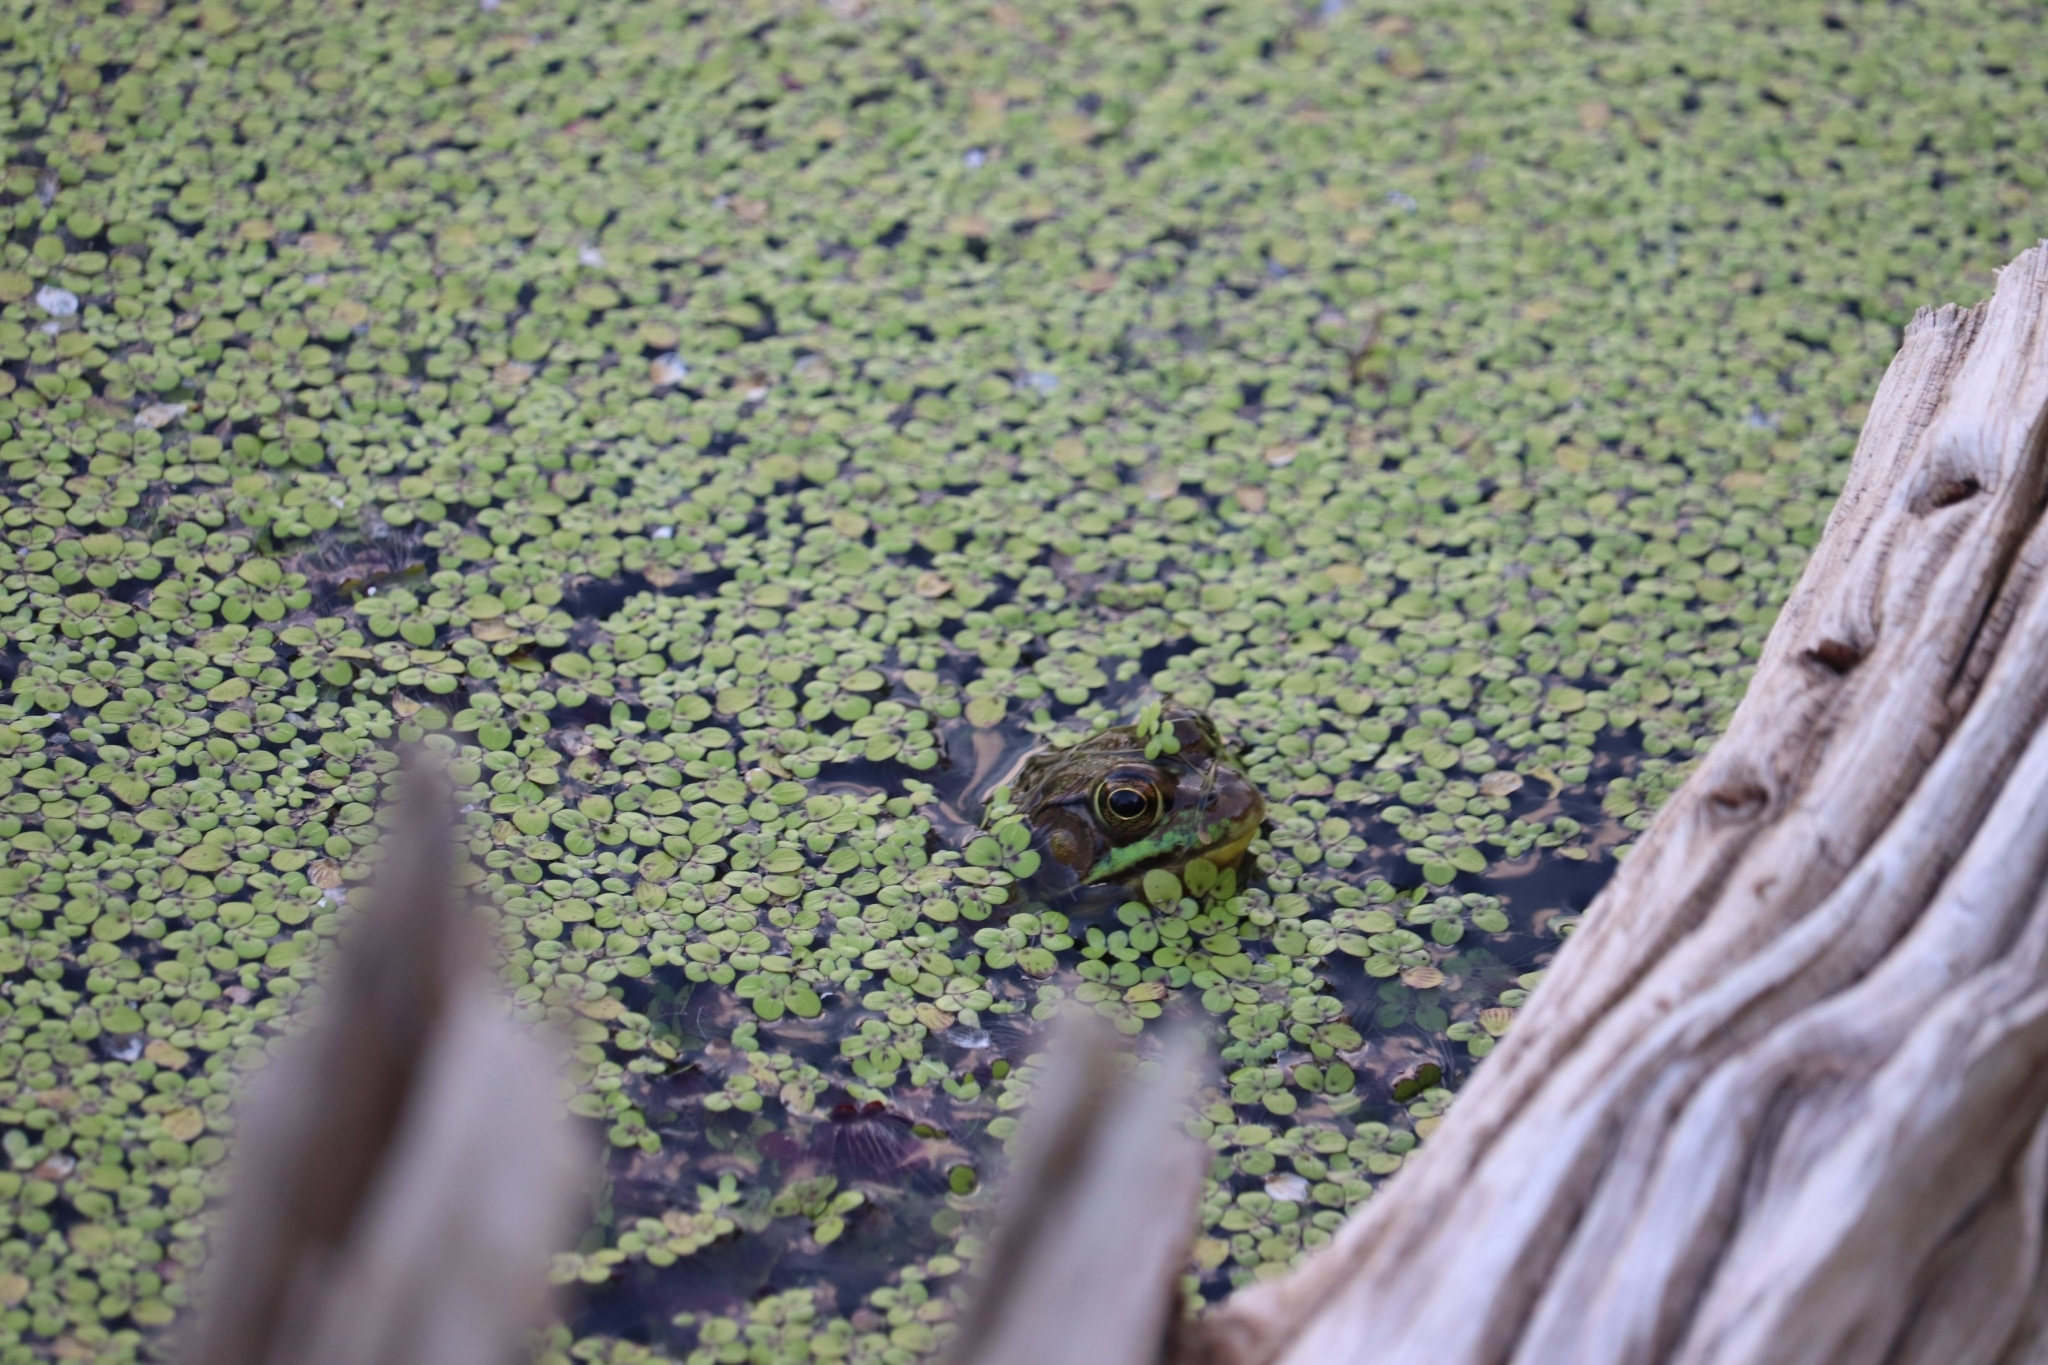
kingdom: Animalia
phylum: Chordata
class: Amphibia
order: Anura
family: Ranidae
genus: Lithobates
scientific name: Lithobates clamitans
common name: Green frog
